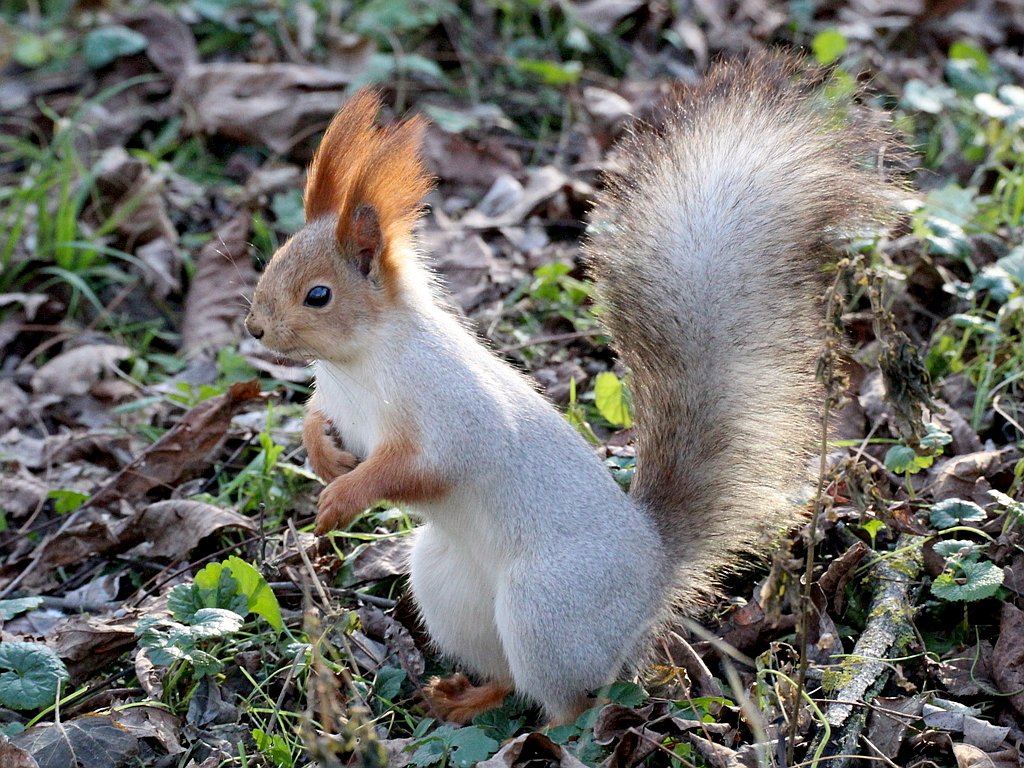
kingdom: Animalia
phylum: Chordata
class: Mammalia
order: Rodentia
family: Sciuridae
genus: Sciurus
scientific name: Sciurus vulgaris
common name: Eurasian red squirrel
